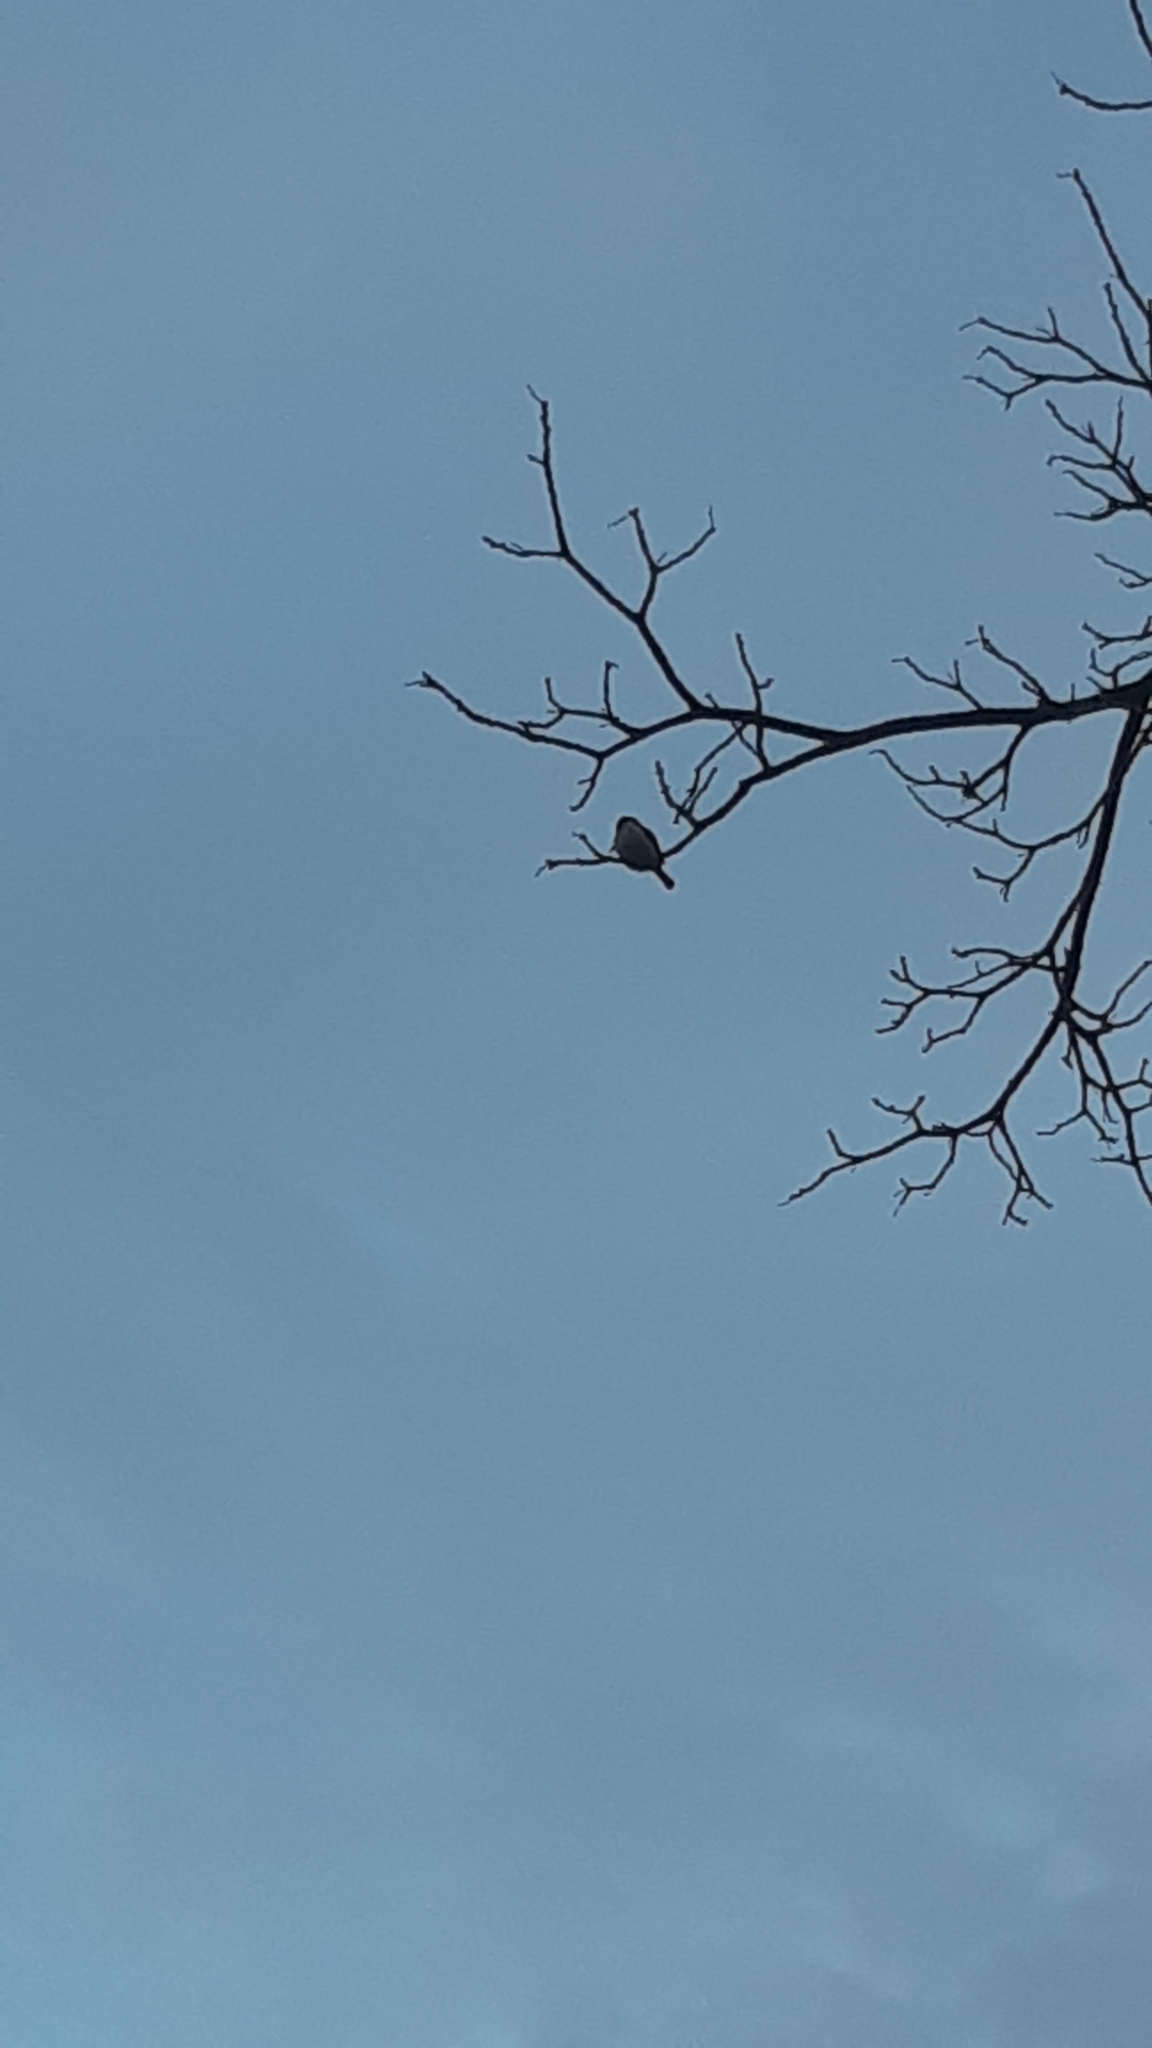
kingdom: Animalia
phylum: Chordata
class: Aves
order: Coraciiformes
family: Alcedinidae
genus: Todiramphus
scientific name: Todiramphus sanctus
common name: Sacred kingfisher
